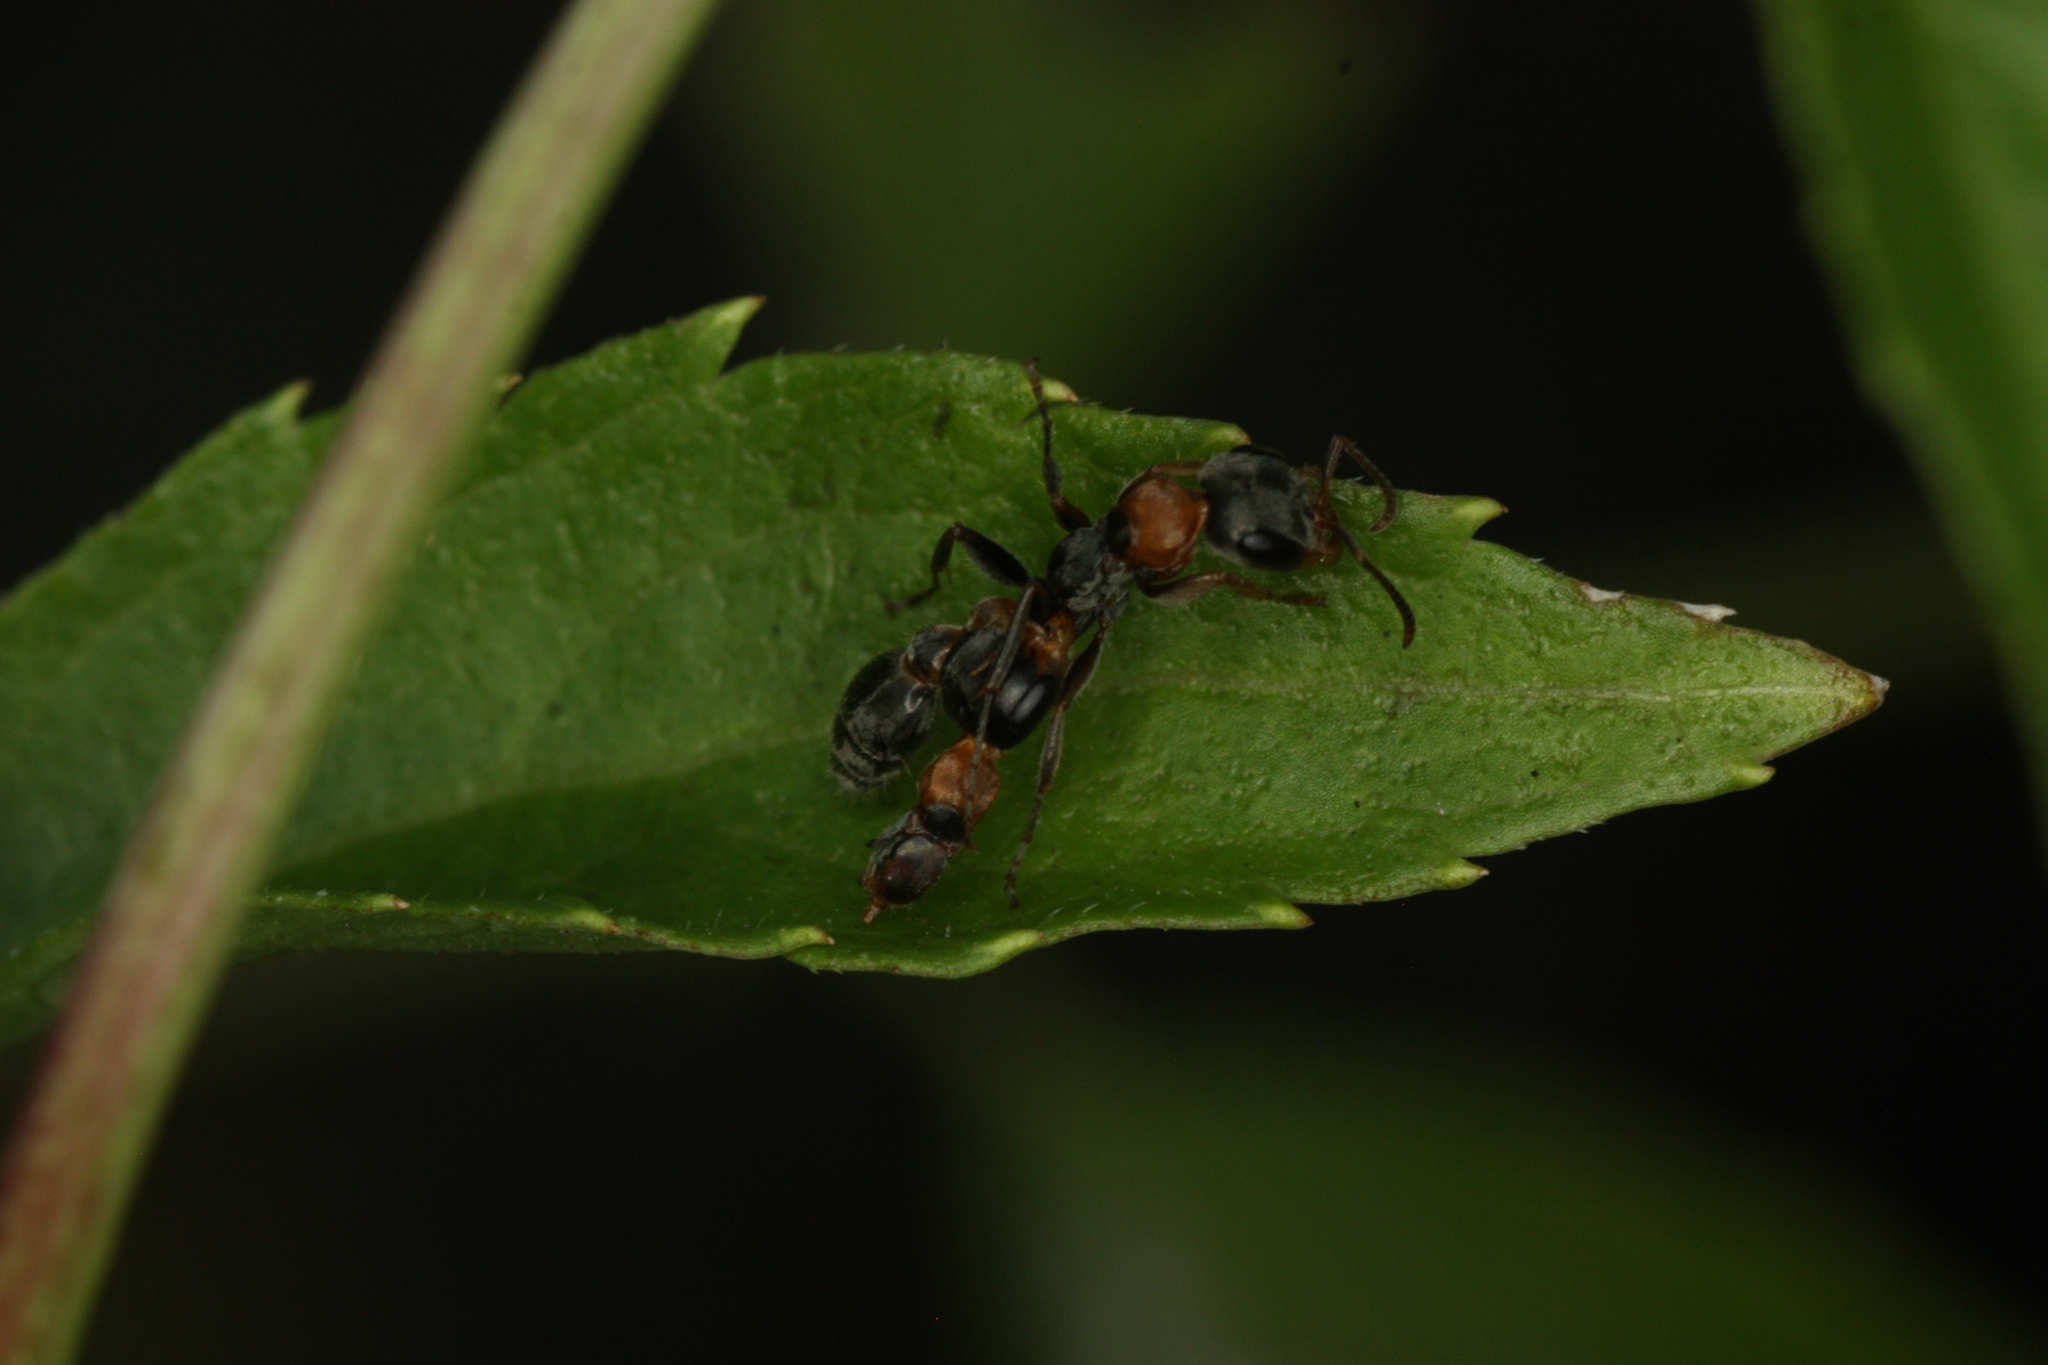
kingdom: Animalia
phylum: Arthropoda
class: Insecta
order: Hymenoptera
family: Formicidae
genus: Pseudomyrmex
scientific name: Pseudomyrmex gracilis
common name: Graceful twig ant
